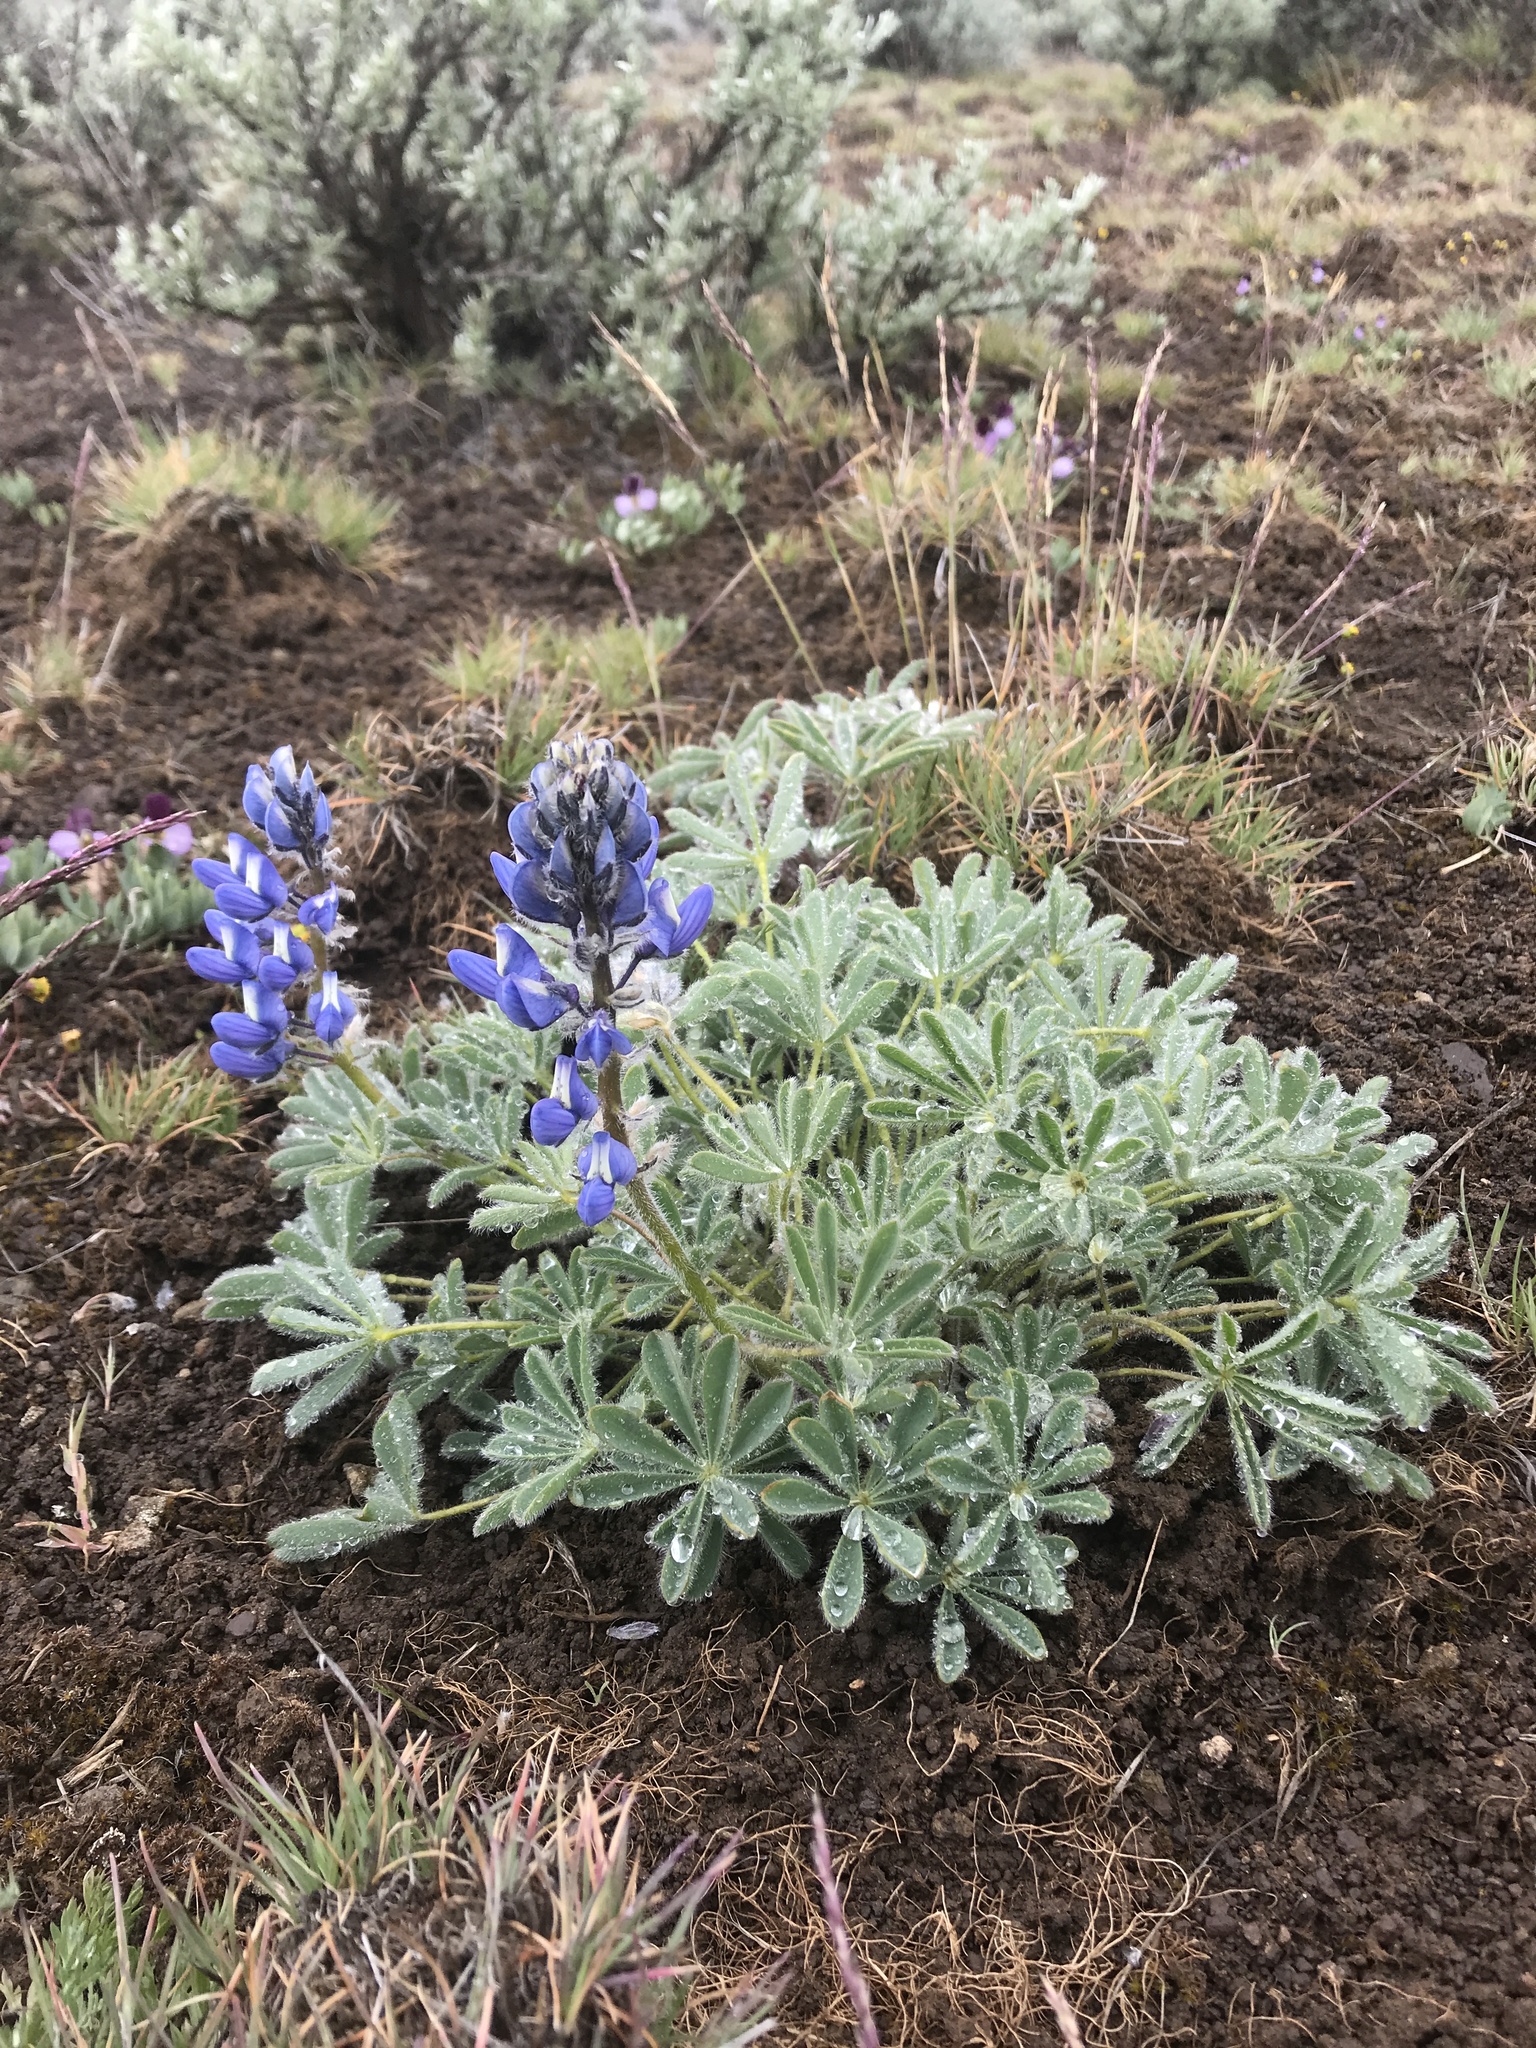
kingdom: Plantae
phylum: Tracheophyta
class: Magnoliopsida
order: Fabales
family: Fabaceae
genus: Lupinus
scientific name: Lupinus saxosus
